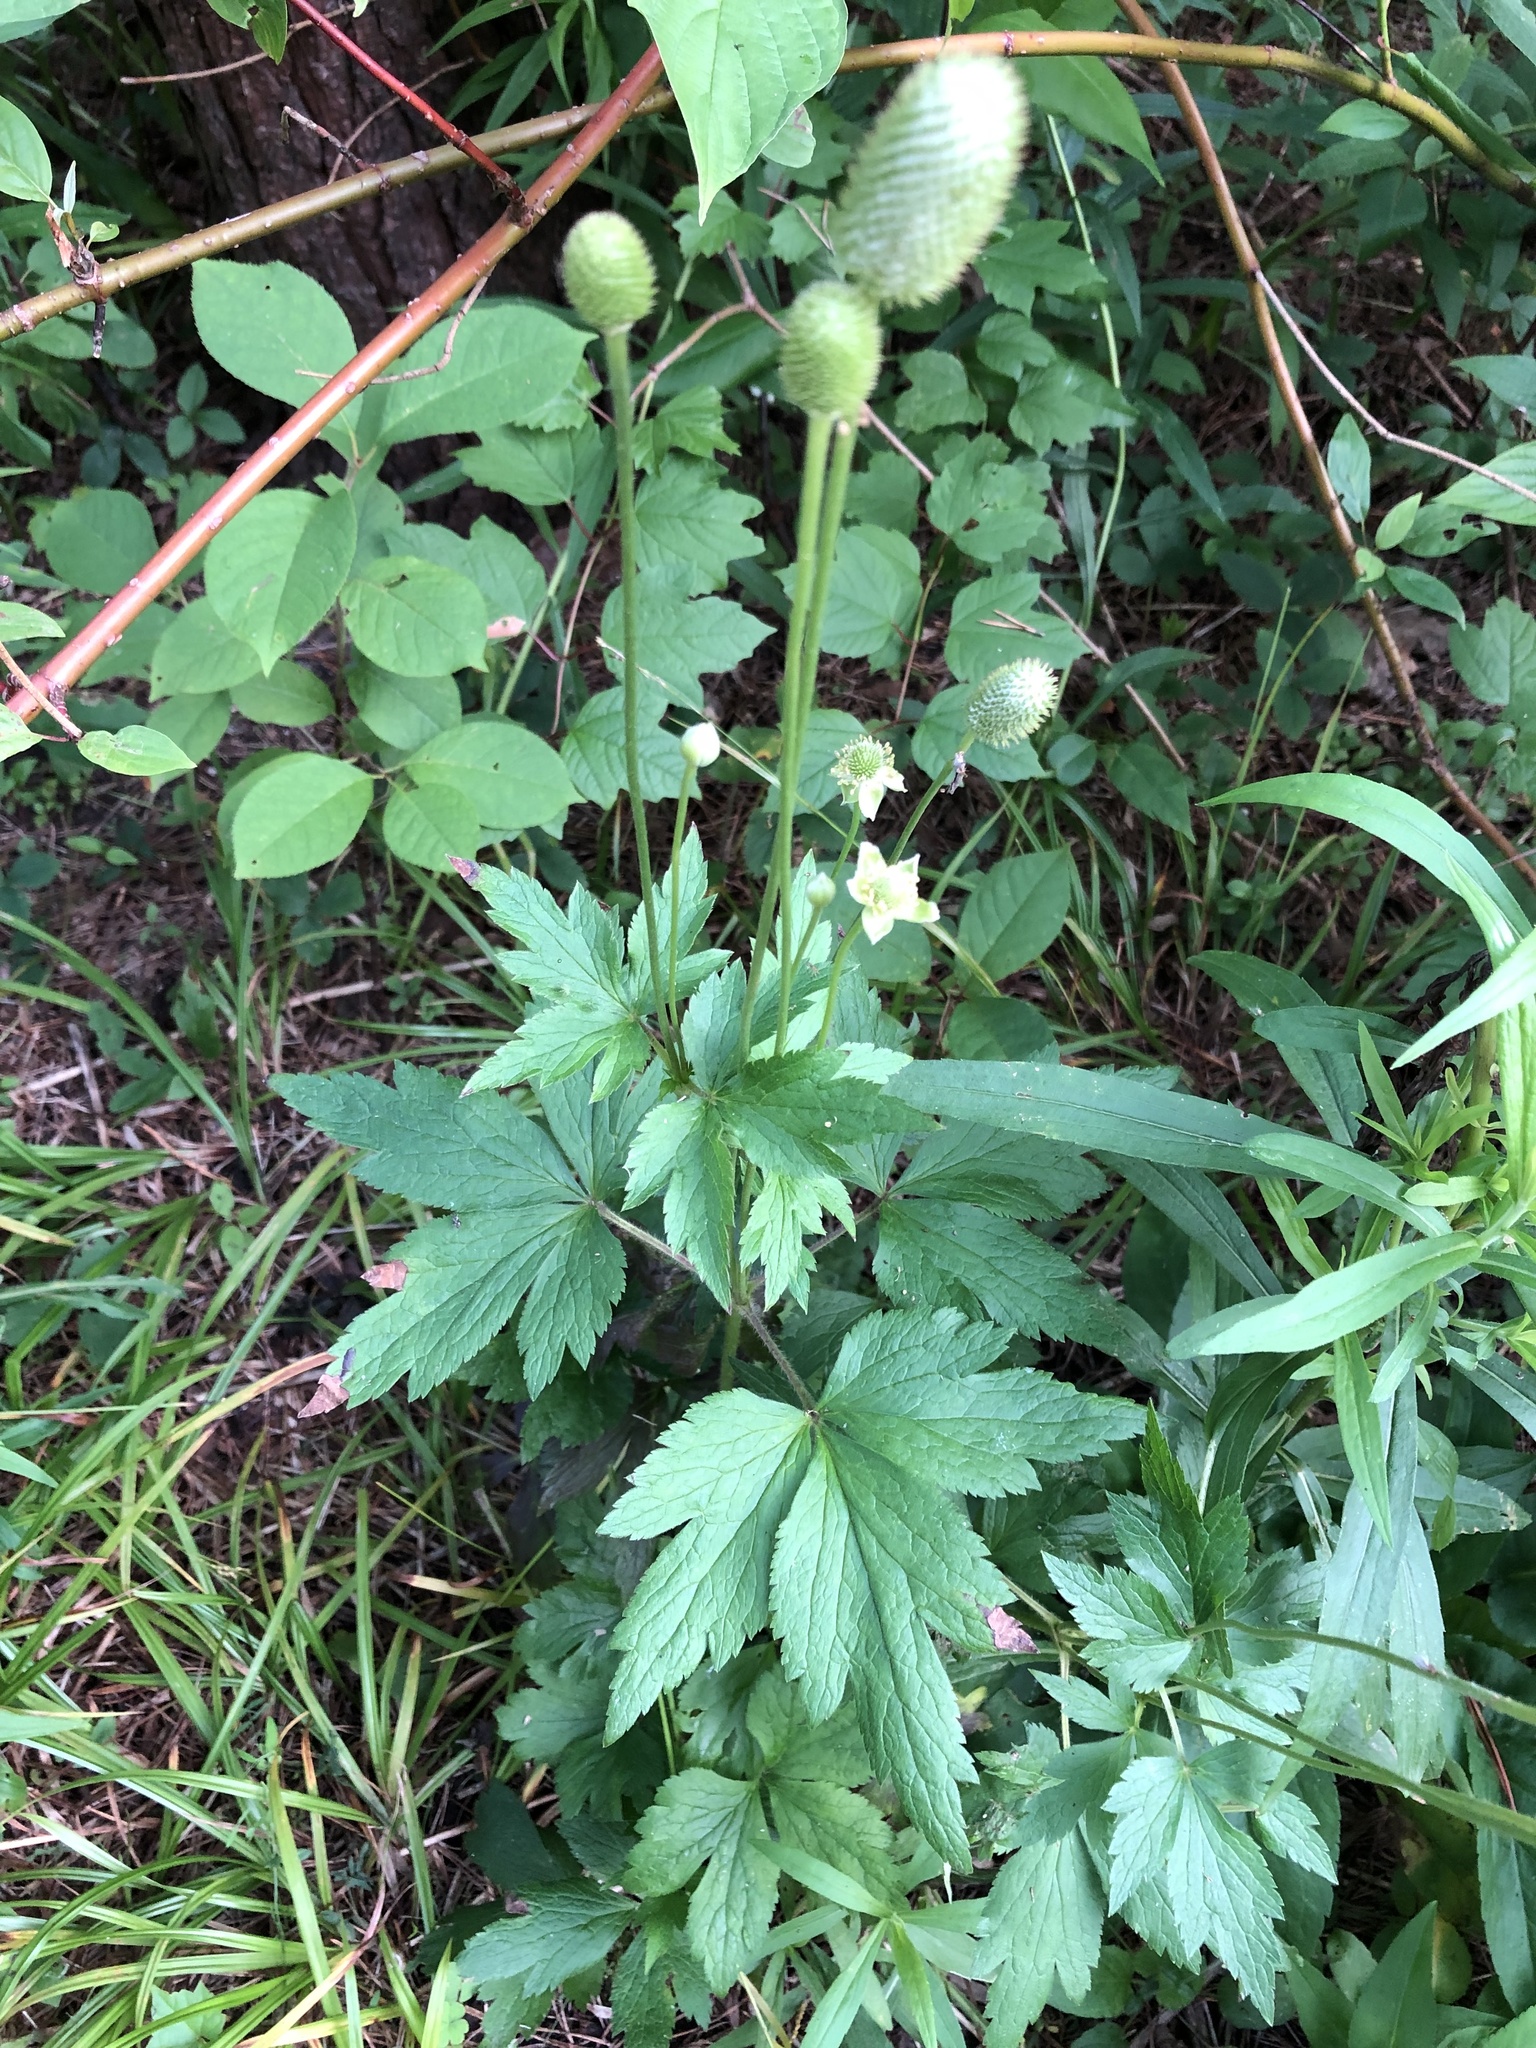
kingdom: Plantae
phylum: Tracheophyta
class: Magnoliopsida
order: Ranunculales
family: Ranunculaceae
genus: Anemone
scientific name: Anemone virginiana
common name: Tall anemone
